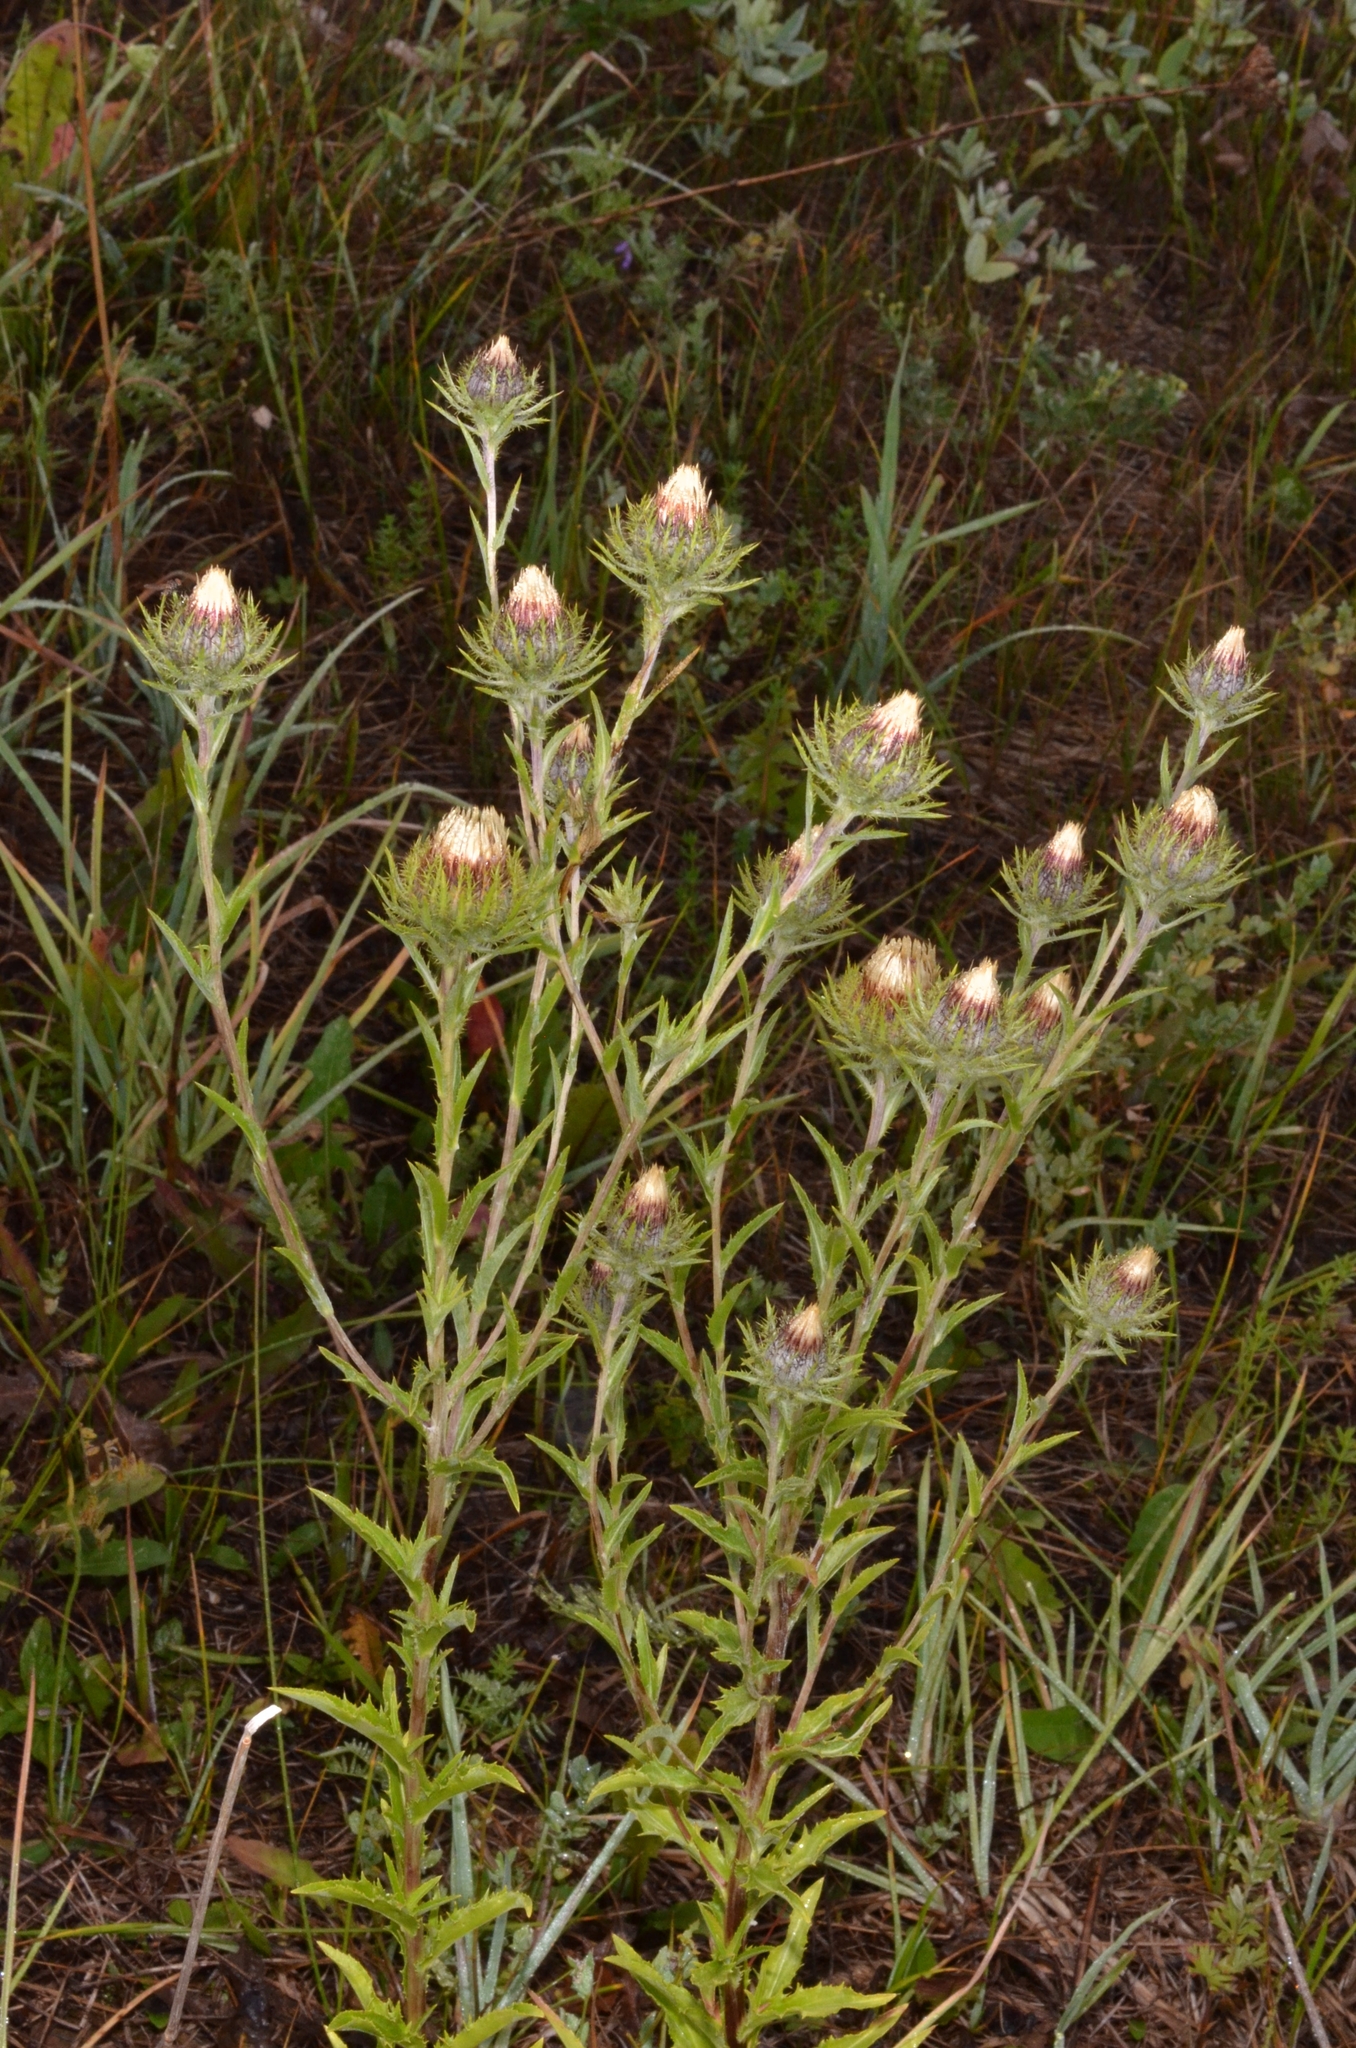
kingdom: Plantae
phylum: Tracheophyta
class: Magnoliopsida
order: Asterales
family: Asteraceae
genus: Carlina
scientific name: Carlina biebersteinii
